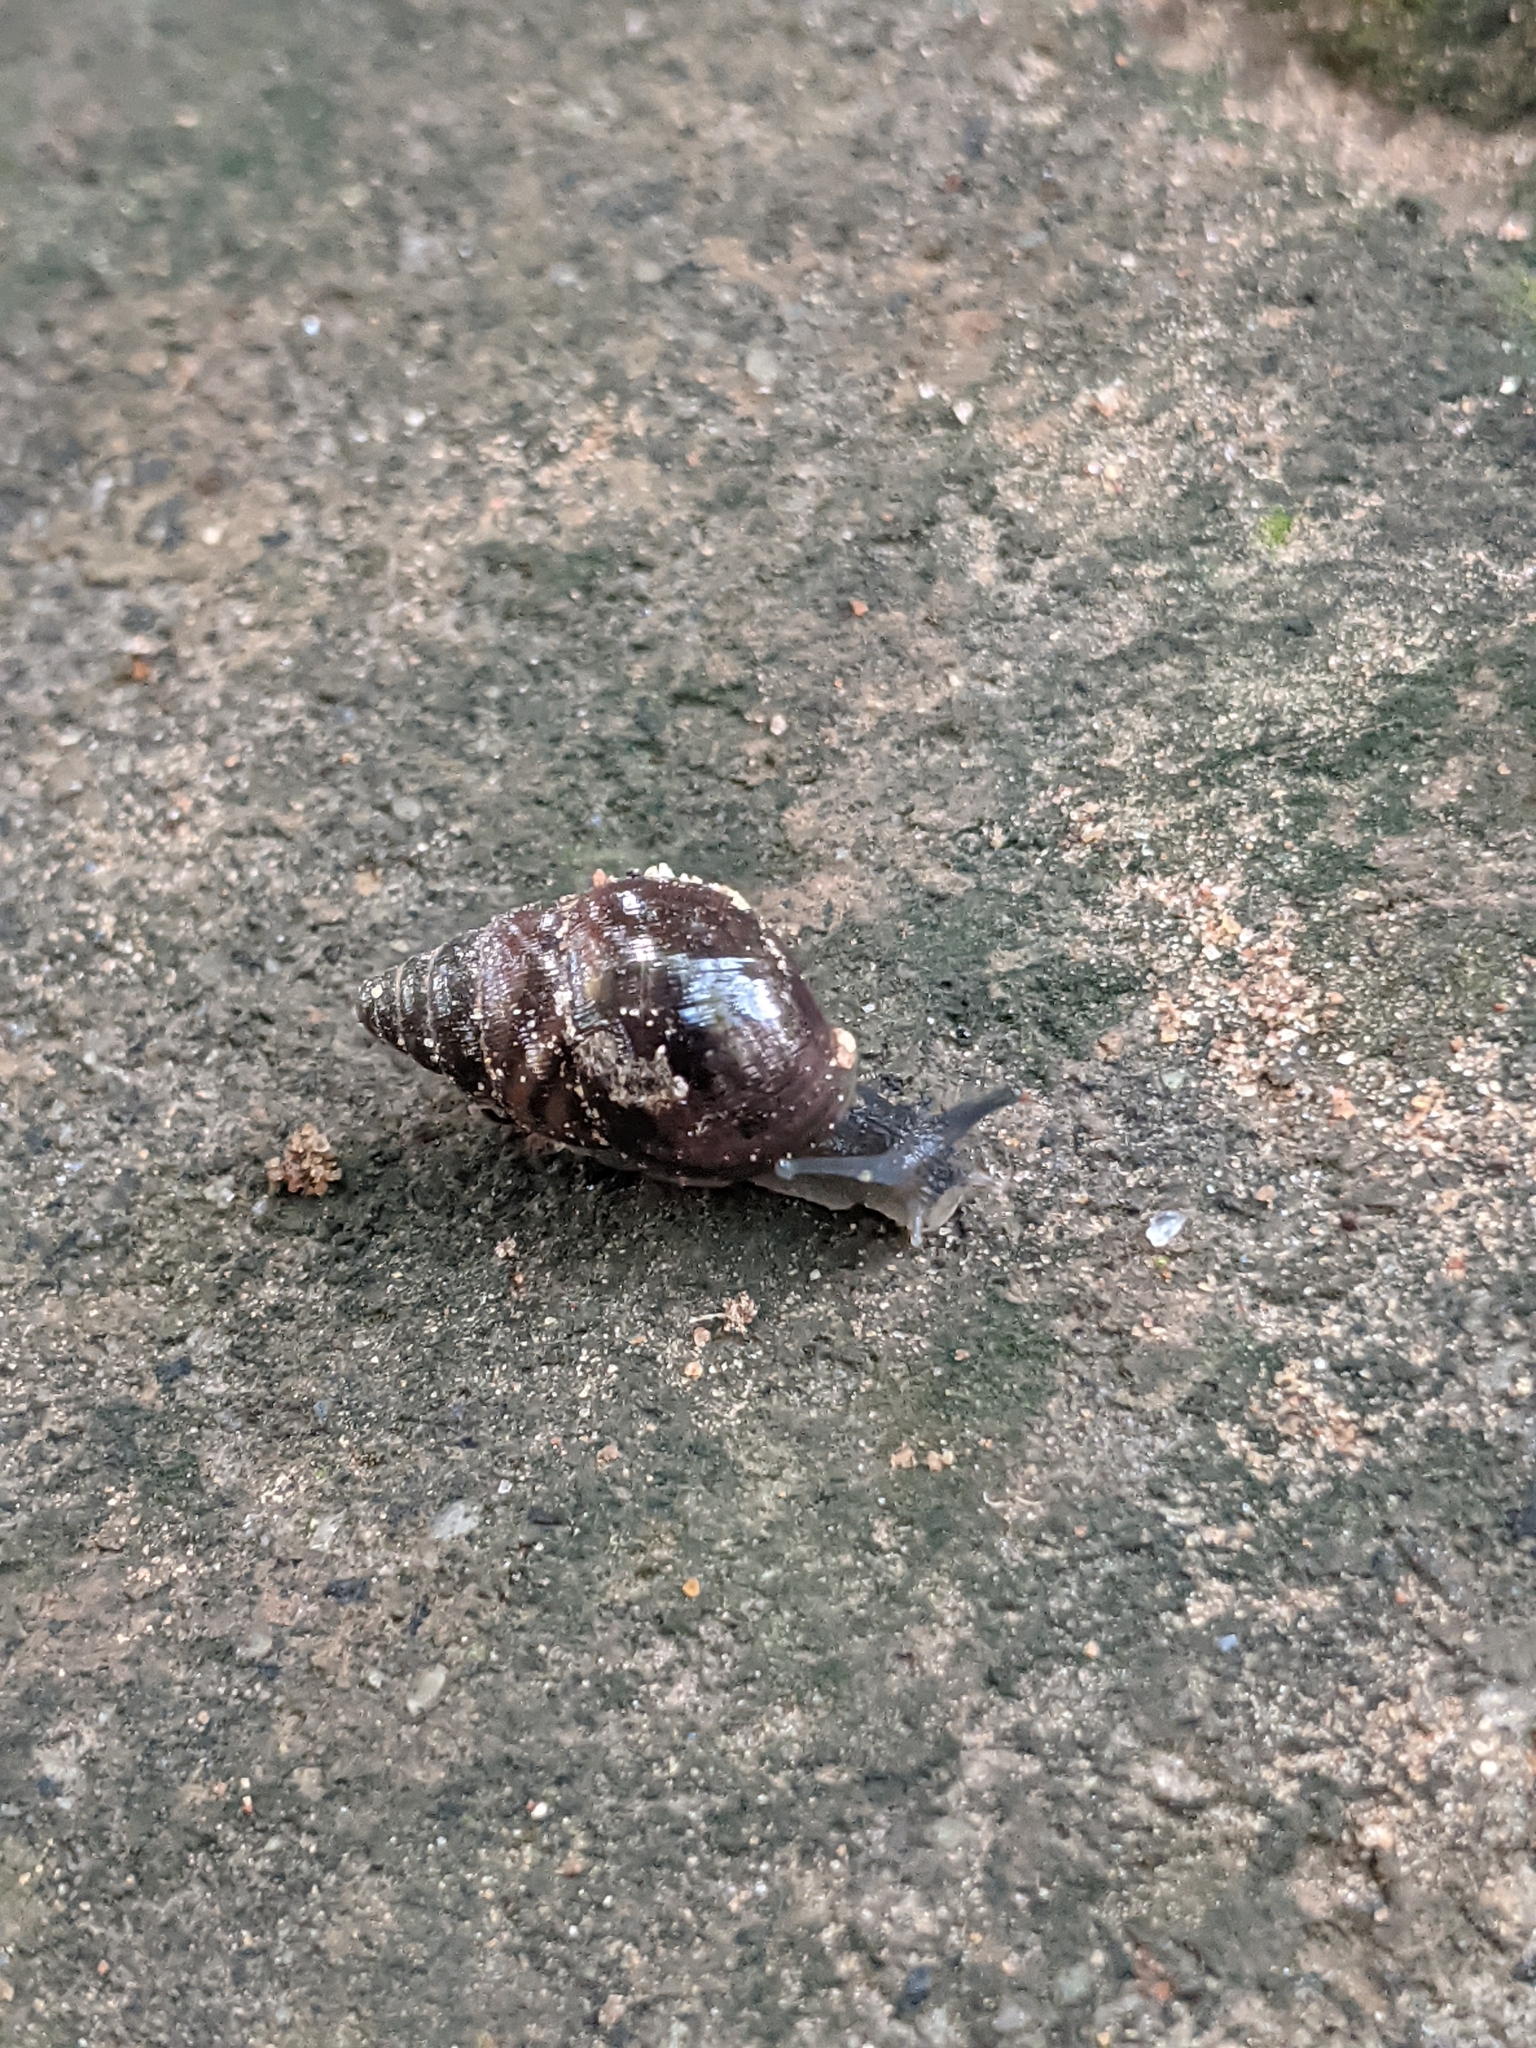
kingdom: Animalia
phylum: Mollusca
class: Gastropoda
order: Stylommatophora
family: Achatinidae
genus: Lissachatina
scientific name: Lissachatina fulica
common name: Giant african snail
